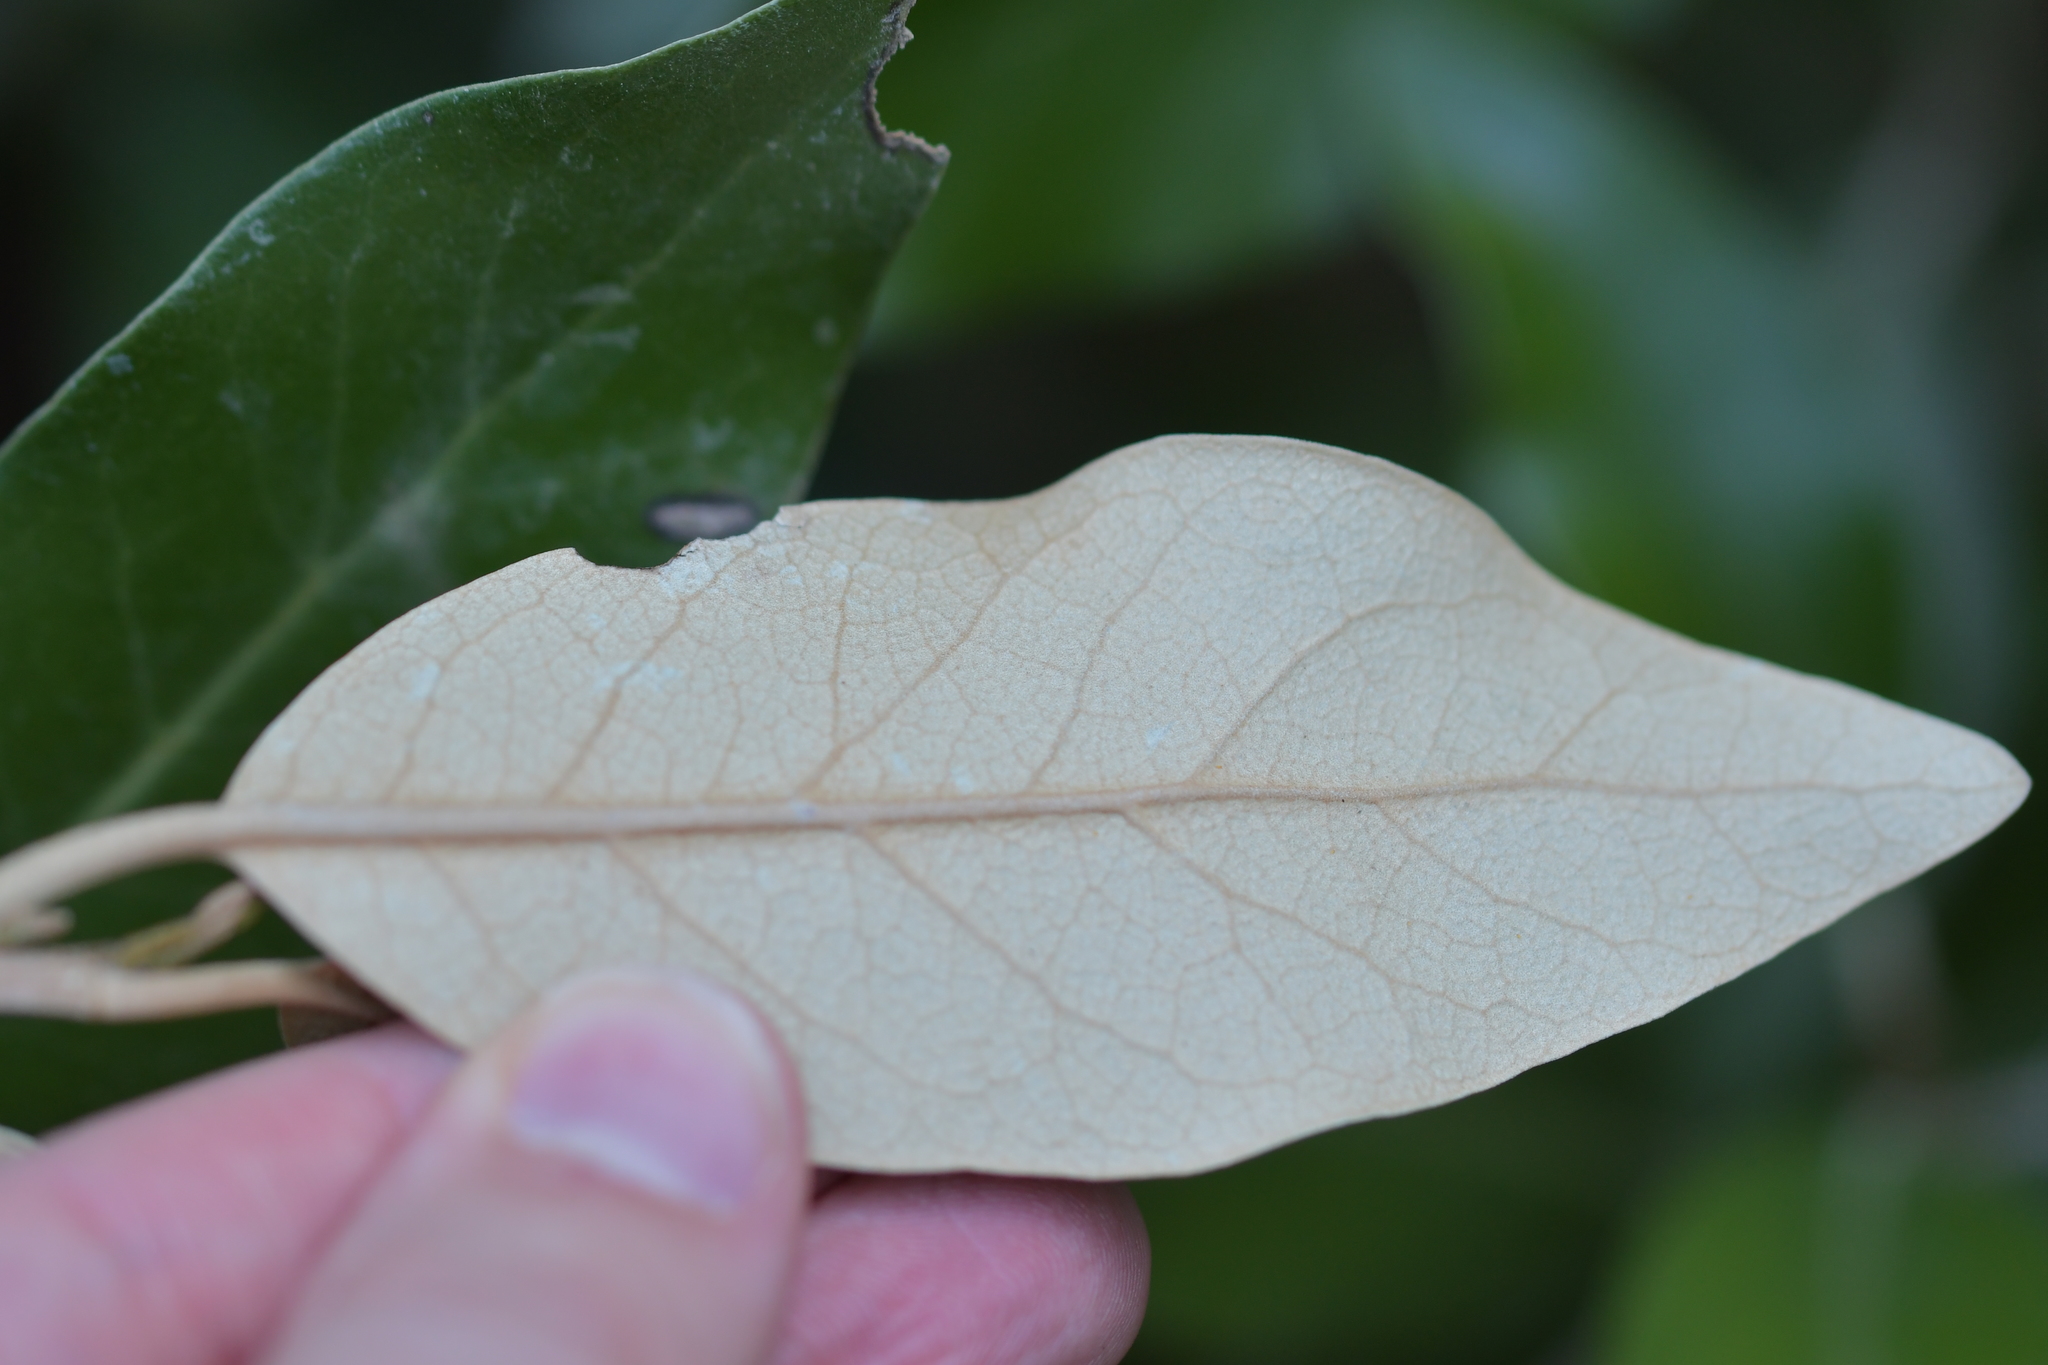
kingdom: Plantae
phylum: Tracheophyta
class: Magnoliopsida
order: Asterales
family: Asteraceae
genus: Olearia
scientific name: Olearia avicenniifolia
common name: Mangrove-leaf daisybush
